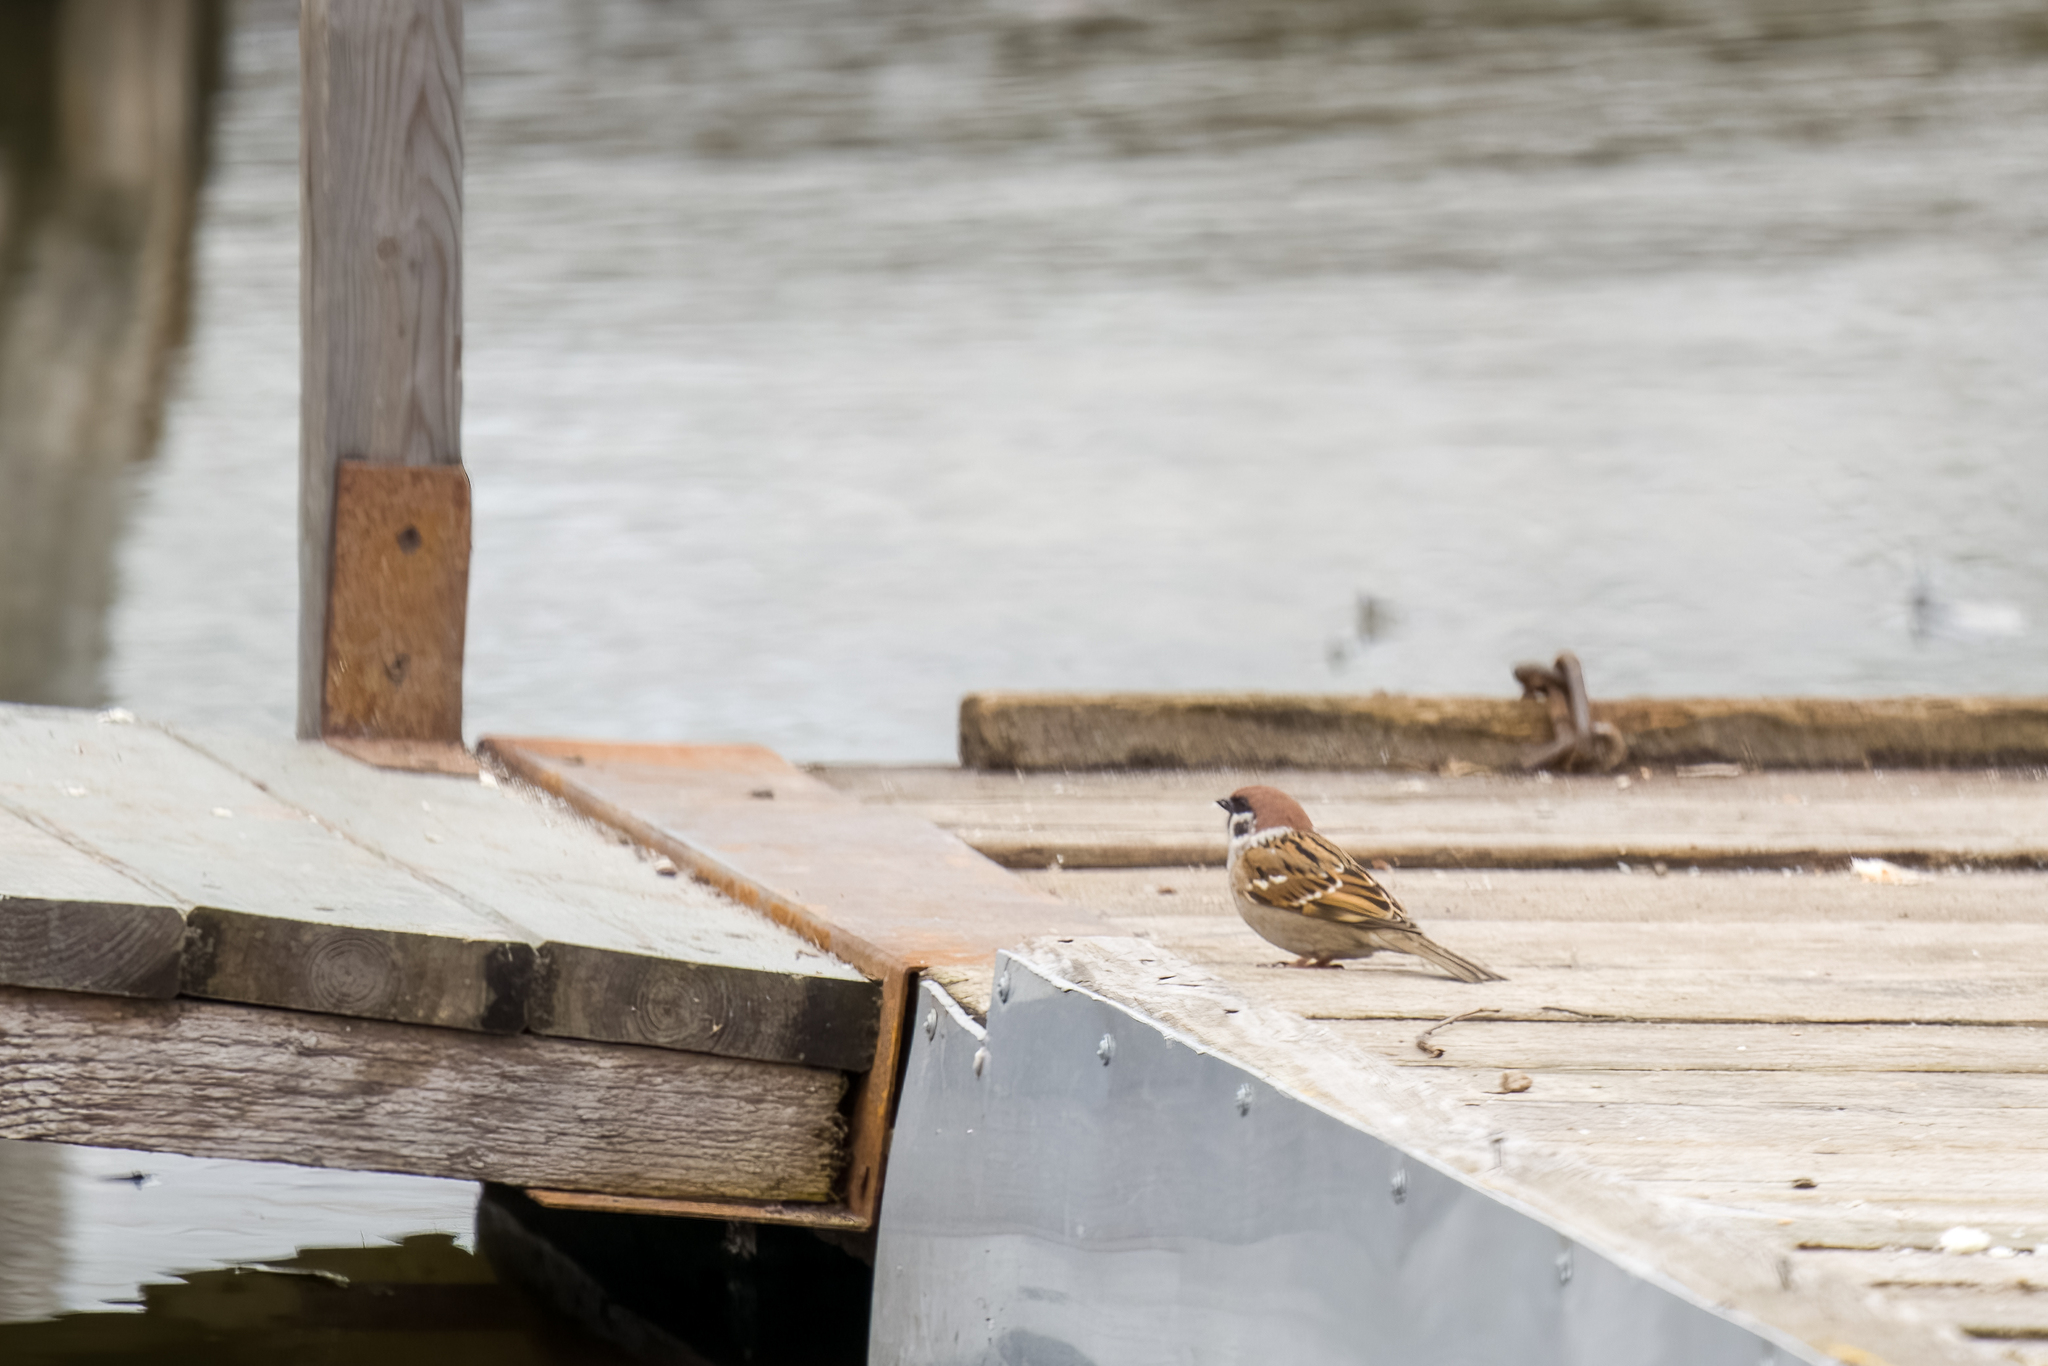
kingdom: Animalia
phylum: Chordata
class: Aves
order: Passeriformes
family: Passeridae
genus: Passer
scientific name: Passer montanus
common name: Eurasian tree sparrow
